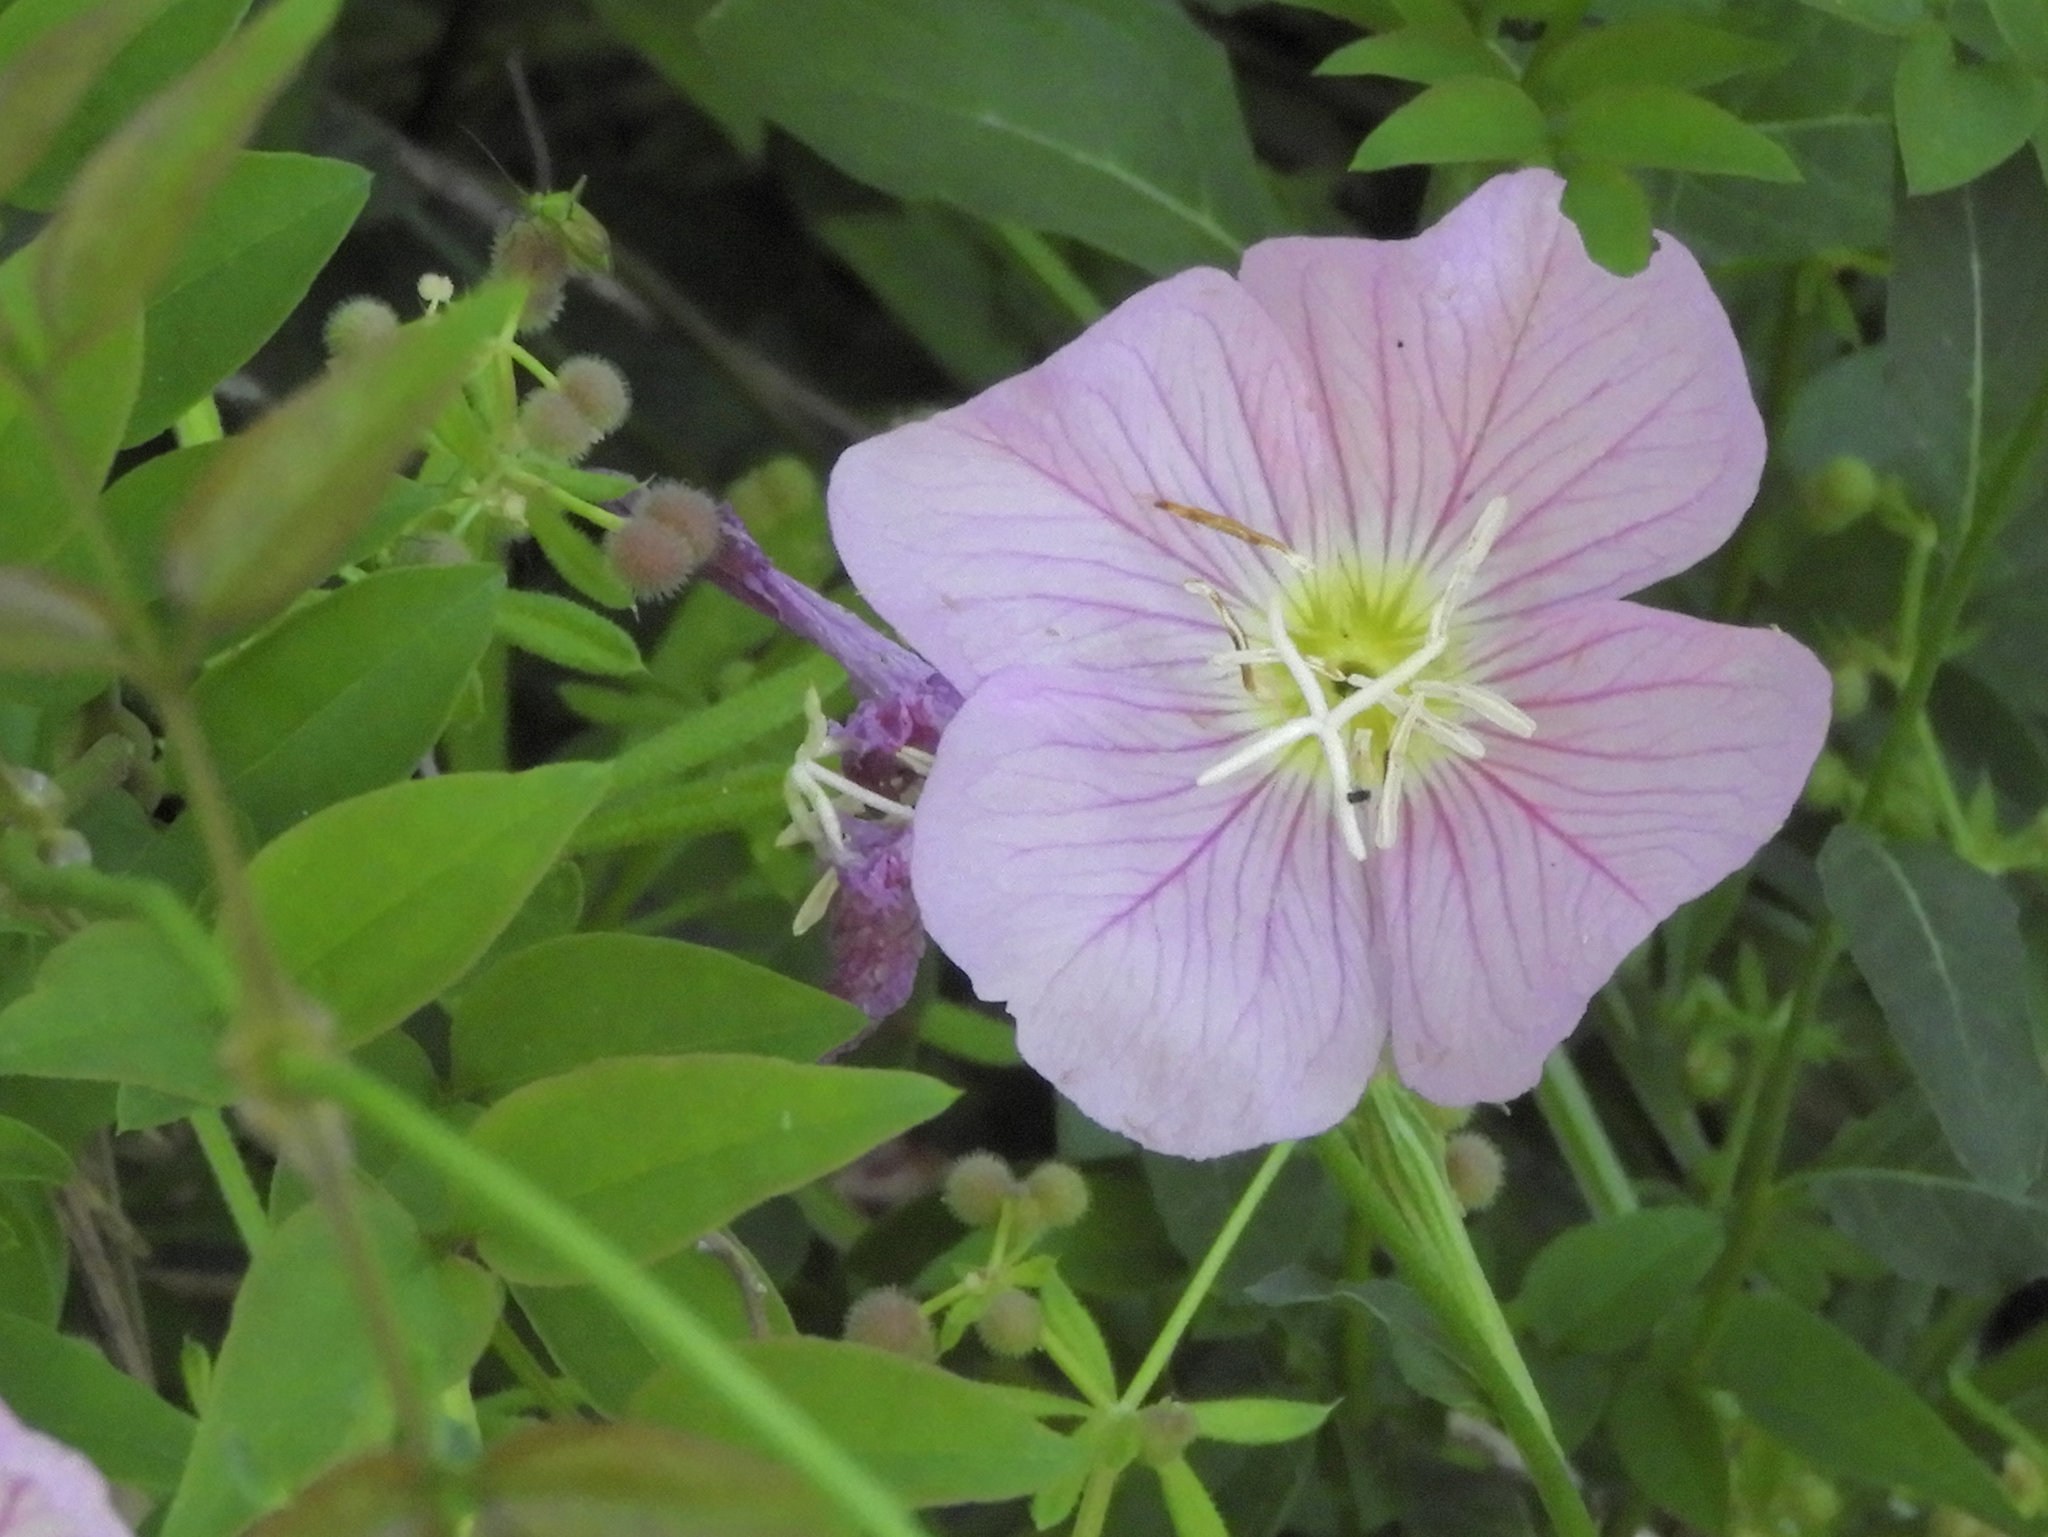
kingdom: Plantae
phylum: Tracheophyta
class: Magnoliopsida
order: Myrtales
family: Onagraceae
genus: Oenothera
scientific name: Oenothera speciosa
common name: White evening-primrose
